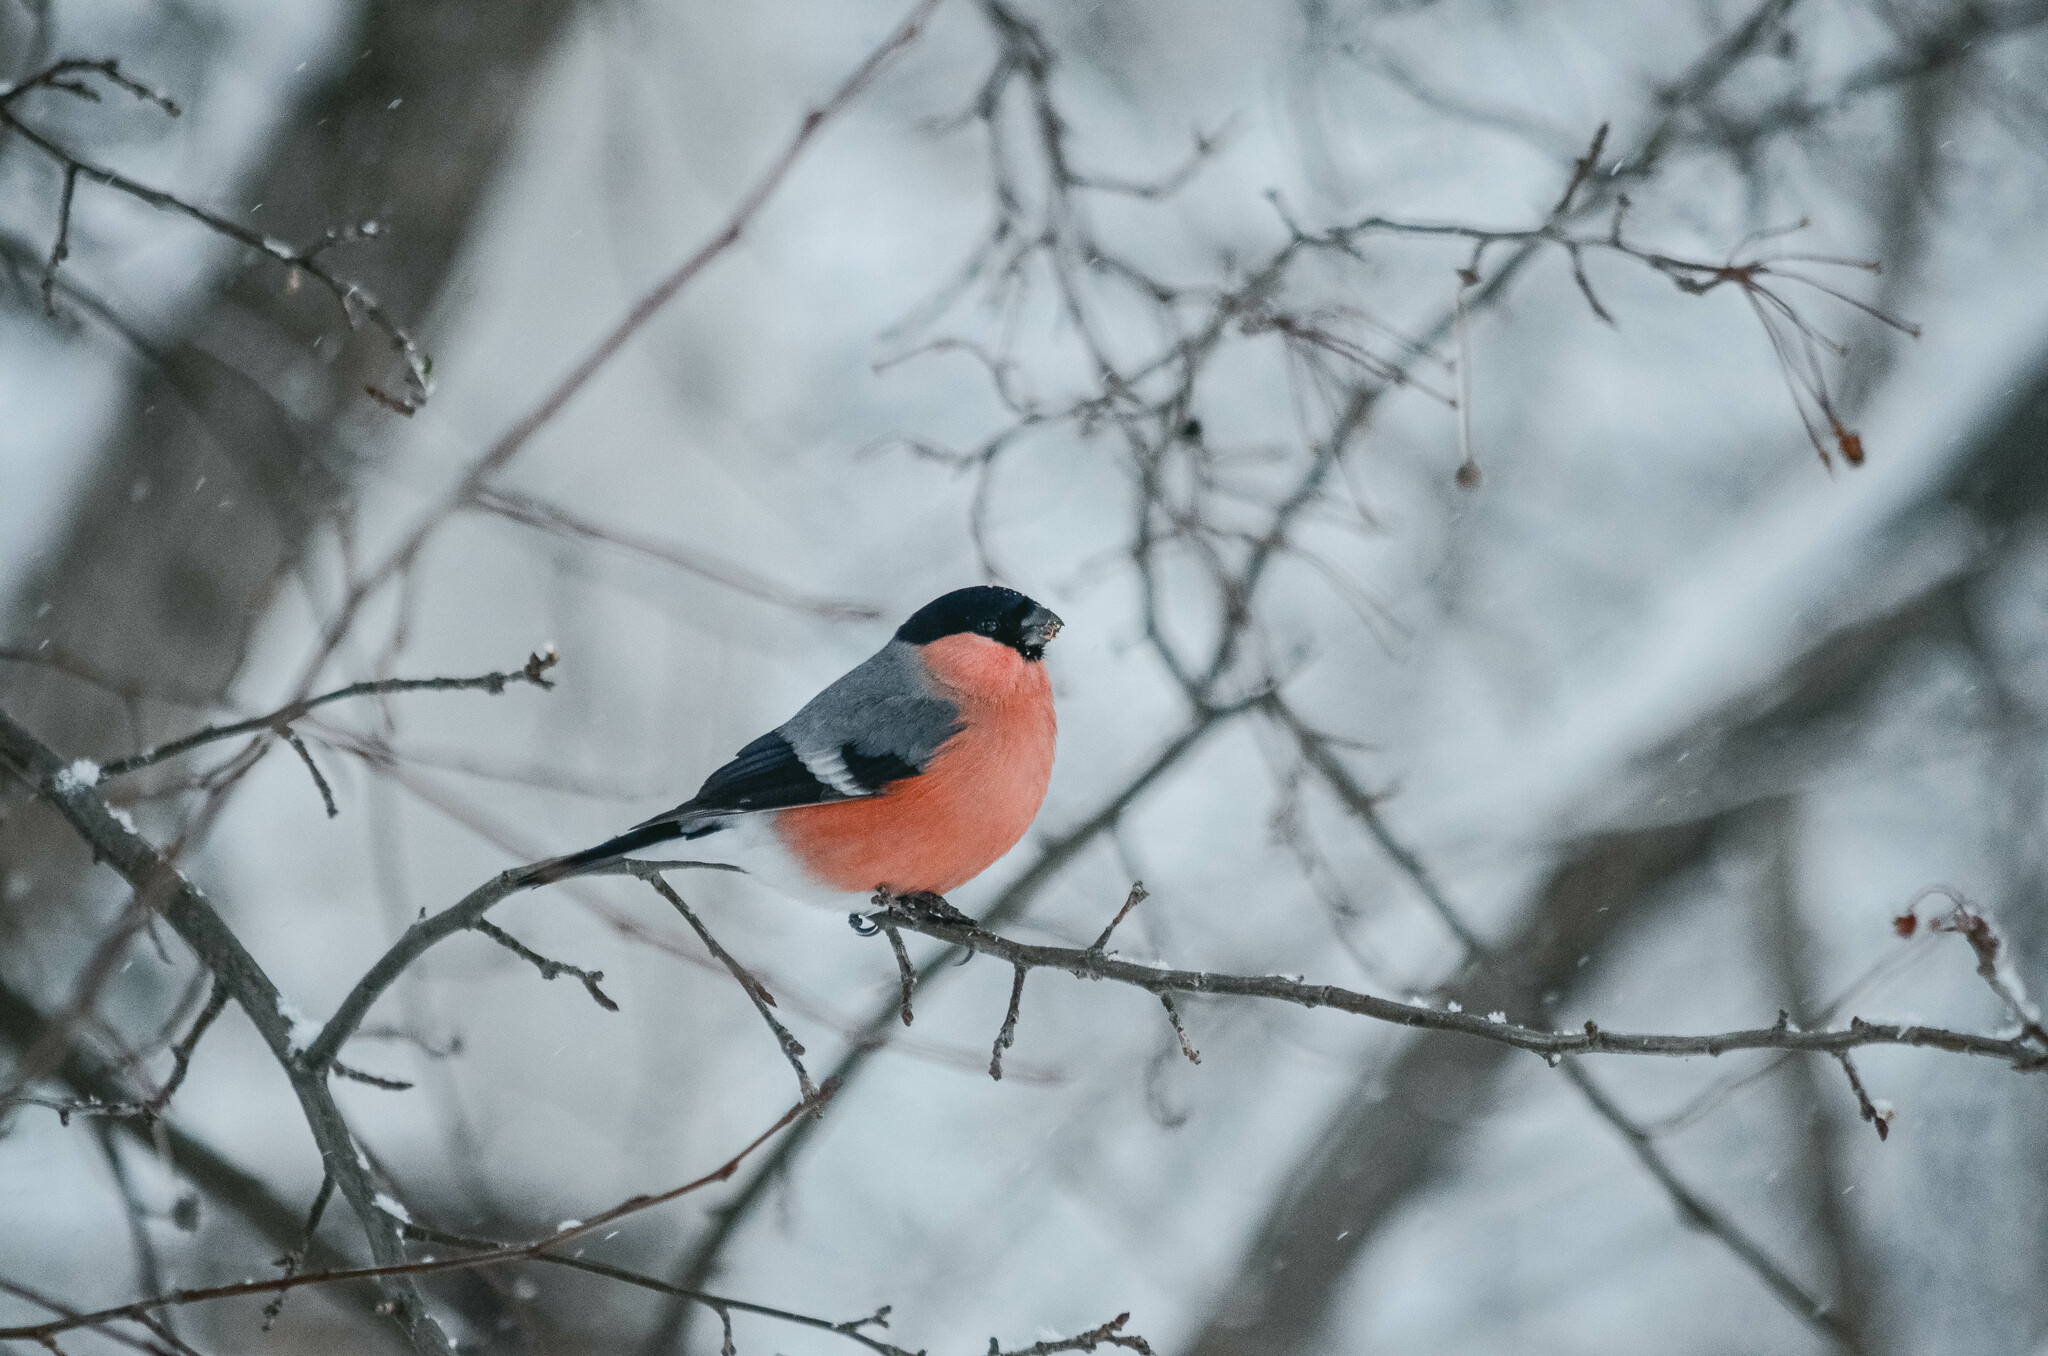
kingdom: Animalia
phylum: Chordata
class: Aves
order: Passeriformes
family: Fringillidae
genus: Pyrrhula
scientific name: Pyrrhula pyrrhula
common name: Eurasian bullfinch
